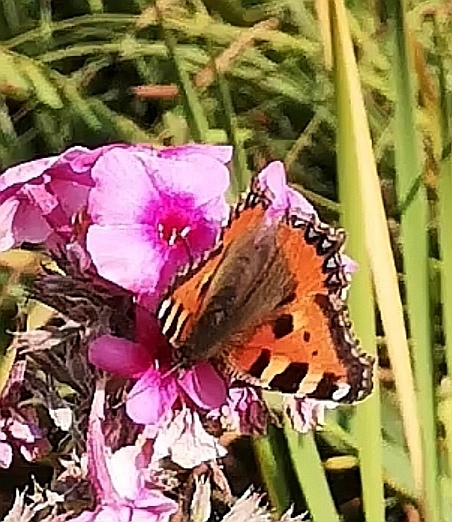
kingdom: Animalia
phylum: Arthropoda
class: Insecta
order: Lepidoptera
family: Nymphalidae
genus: Aglais
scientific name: Aglais urticae
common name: Small tortoiseshell
